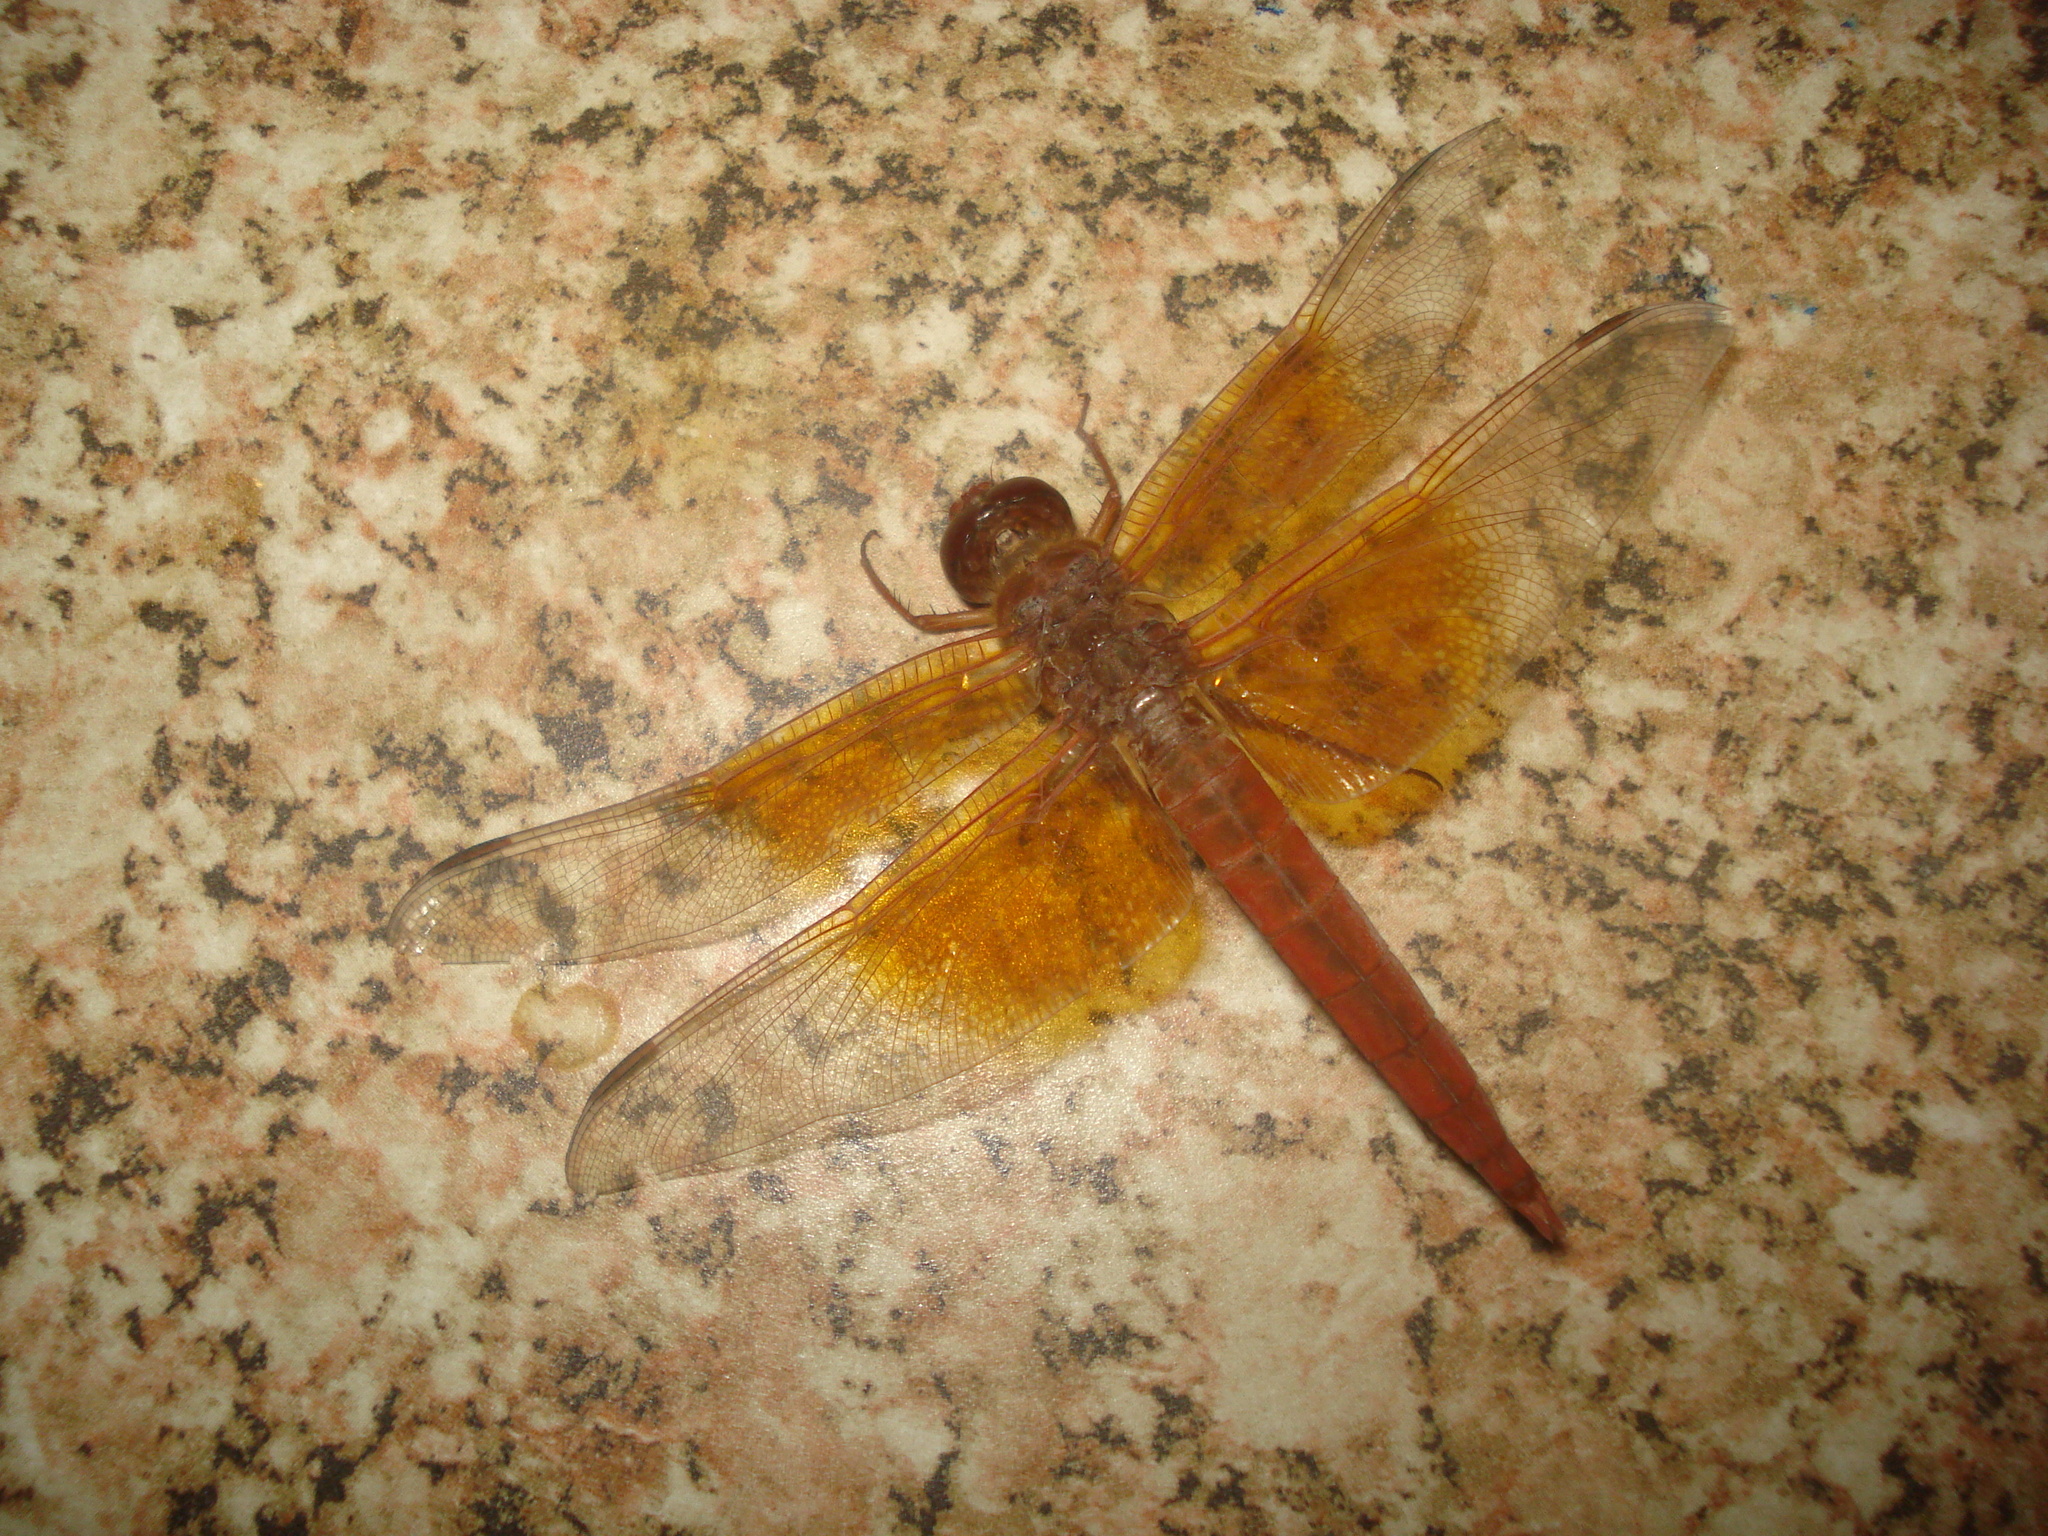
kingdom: Animalia
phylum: Arthropoda
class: Insecta
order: Odonata
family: Libellulidae
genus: Libellula
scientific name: Libellula saturata
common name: Flame skimmer
